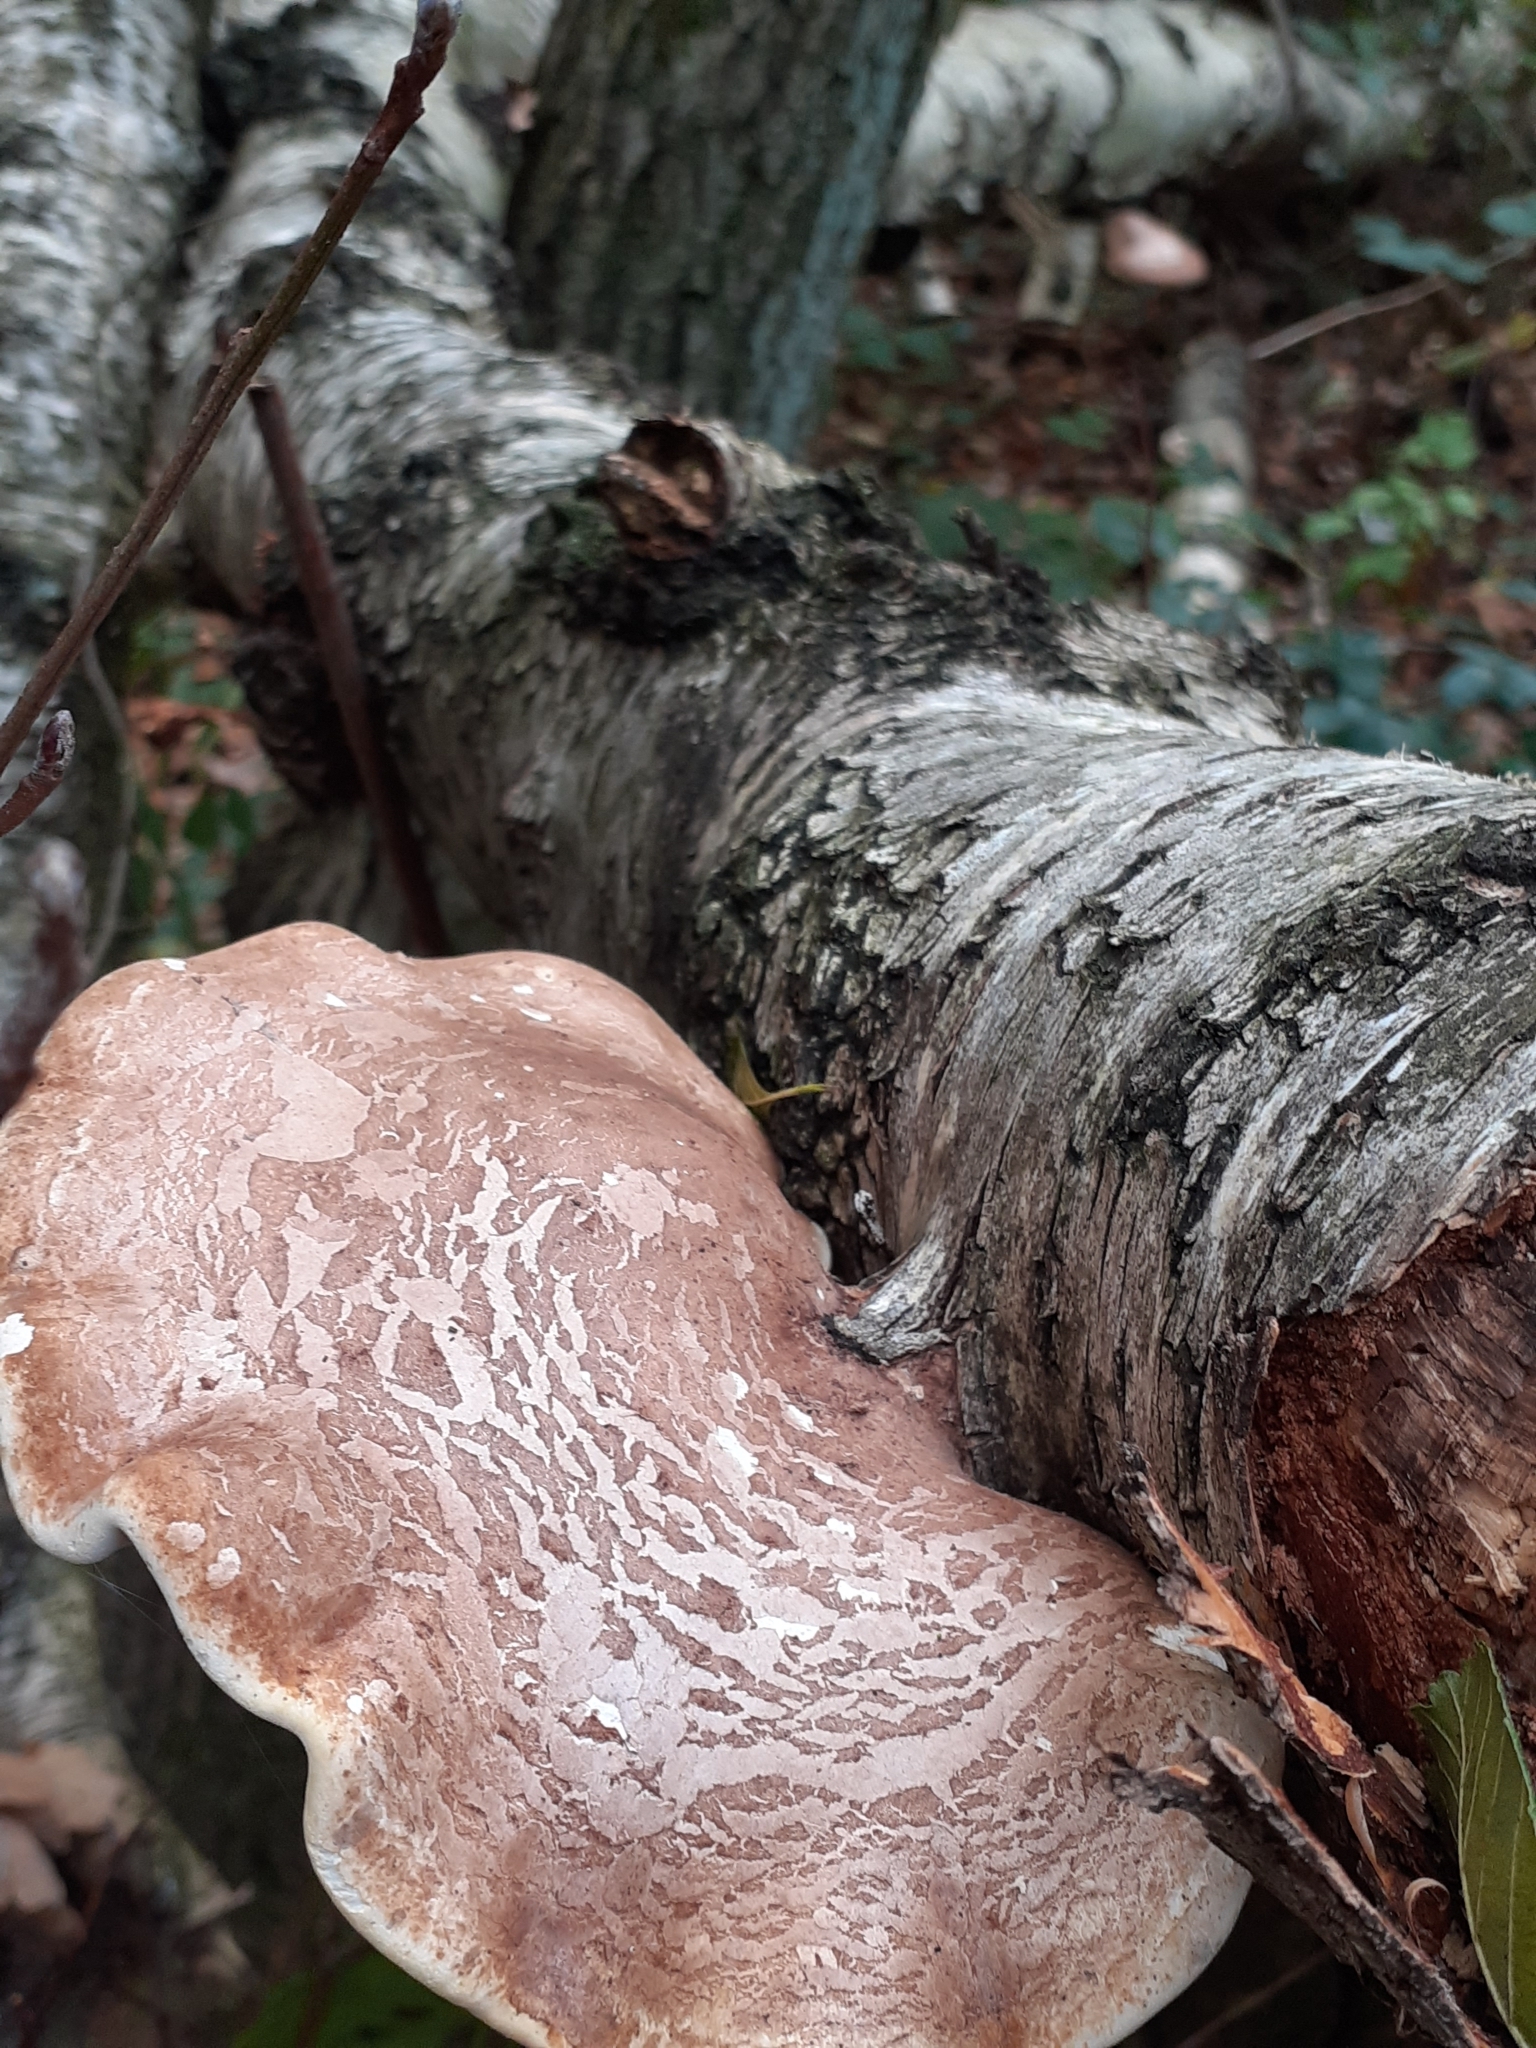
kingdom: Fungi
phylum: Basidiomycota
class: Agaricomycetes
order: Polyporales
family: Fomitopsidaceae
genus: Fomitopsis
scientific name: Fomitopsis betulina
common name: Birch polypore
